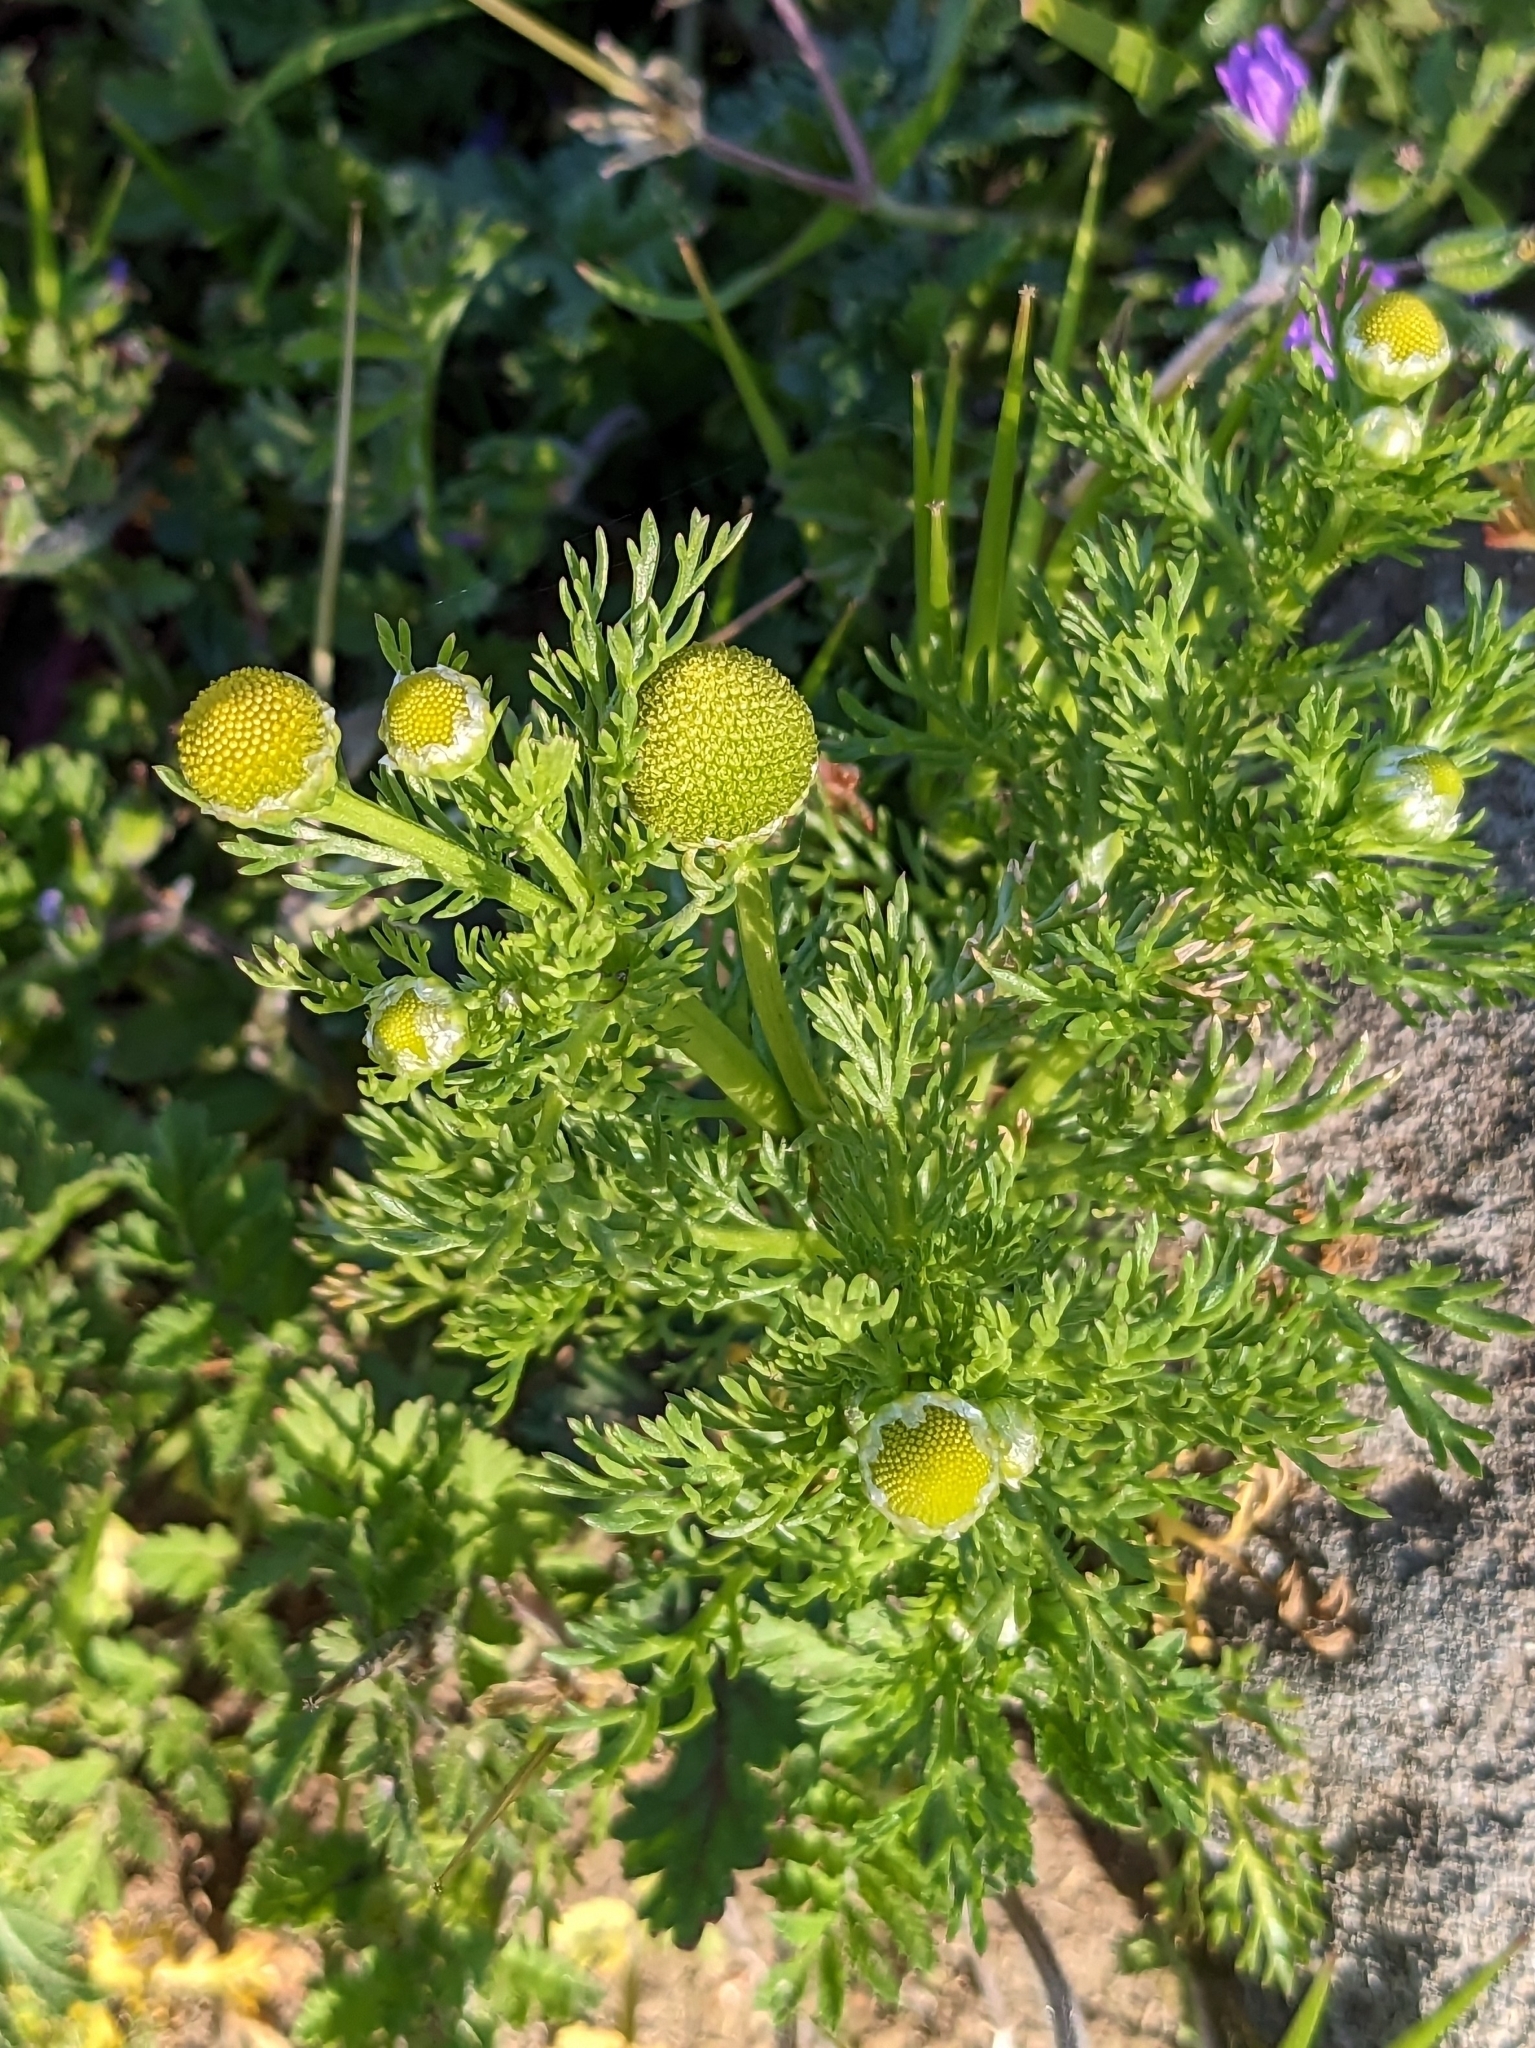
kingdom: Plantae
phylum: Tracheophyta
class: Magnoliopsida
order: Asterales
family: Asteraceae
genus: Matricaria
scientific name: Matricaria discoidea
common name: Disc mayweed
